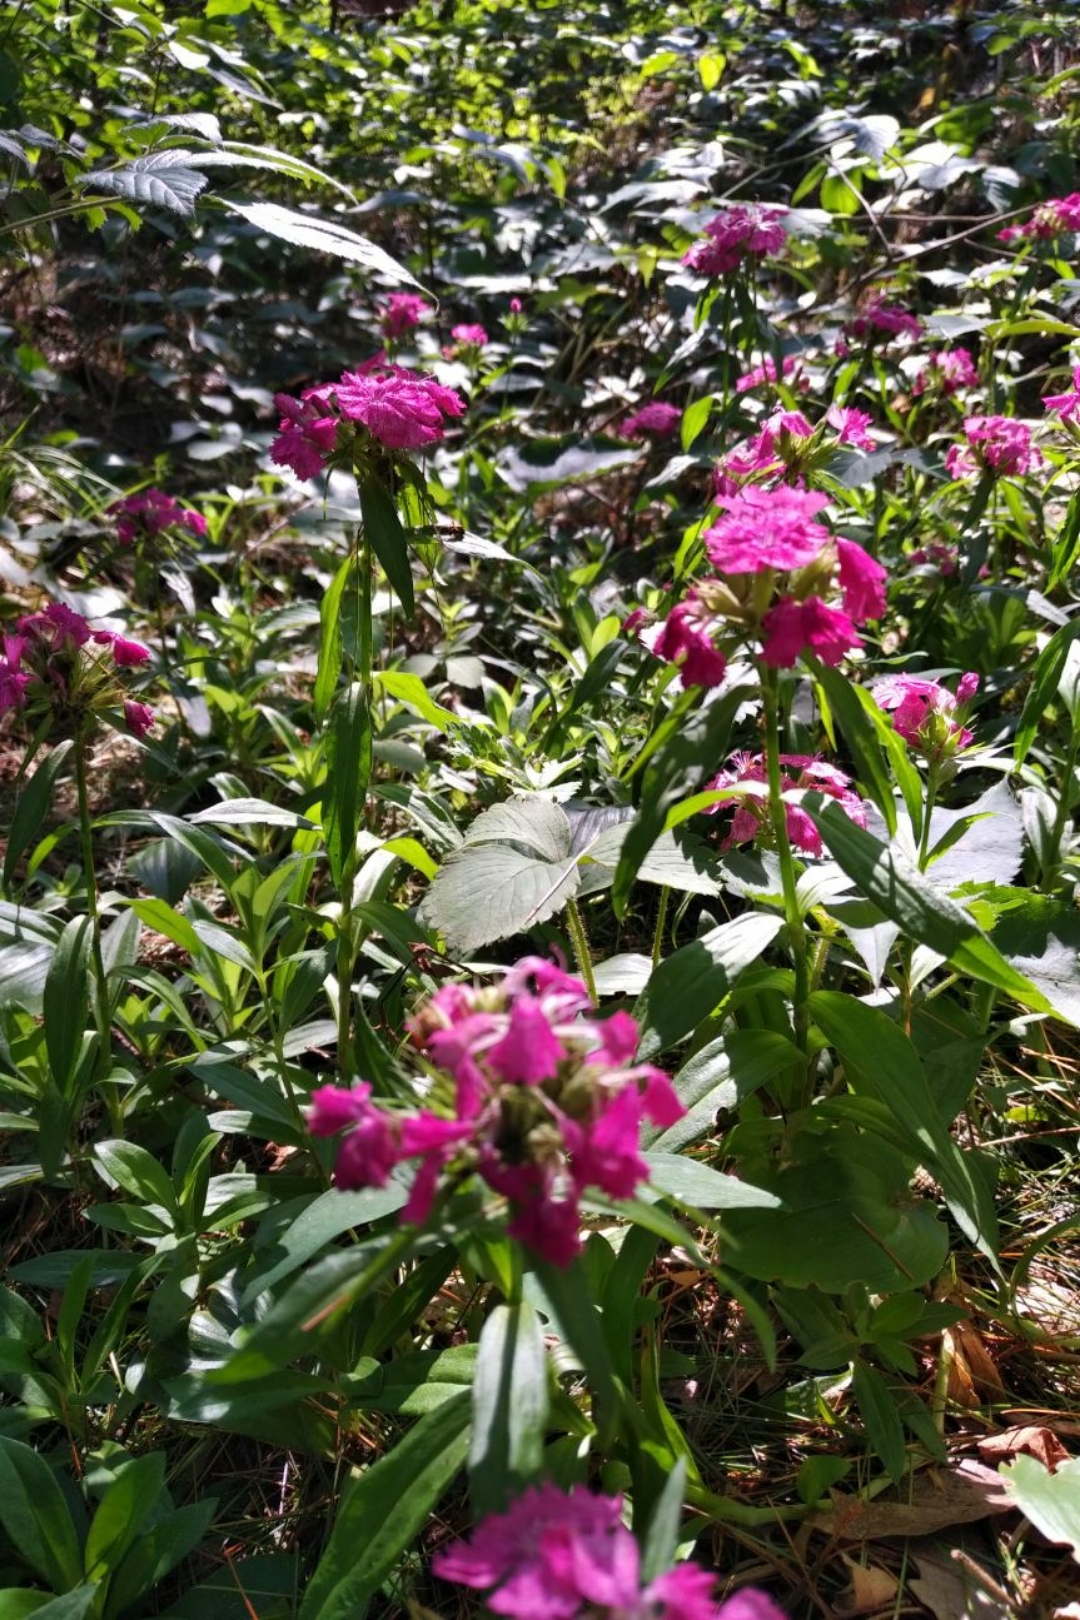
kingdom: Plantae
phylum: Tracheophyta
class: Magnoliopsida
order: Caryophyllales
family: Caryophyllaceae
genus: Dianthus
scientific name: Dianthus barbatus
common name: Sweet-william
